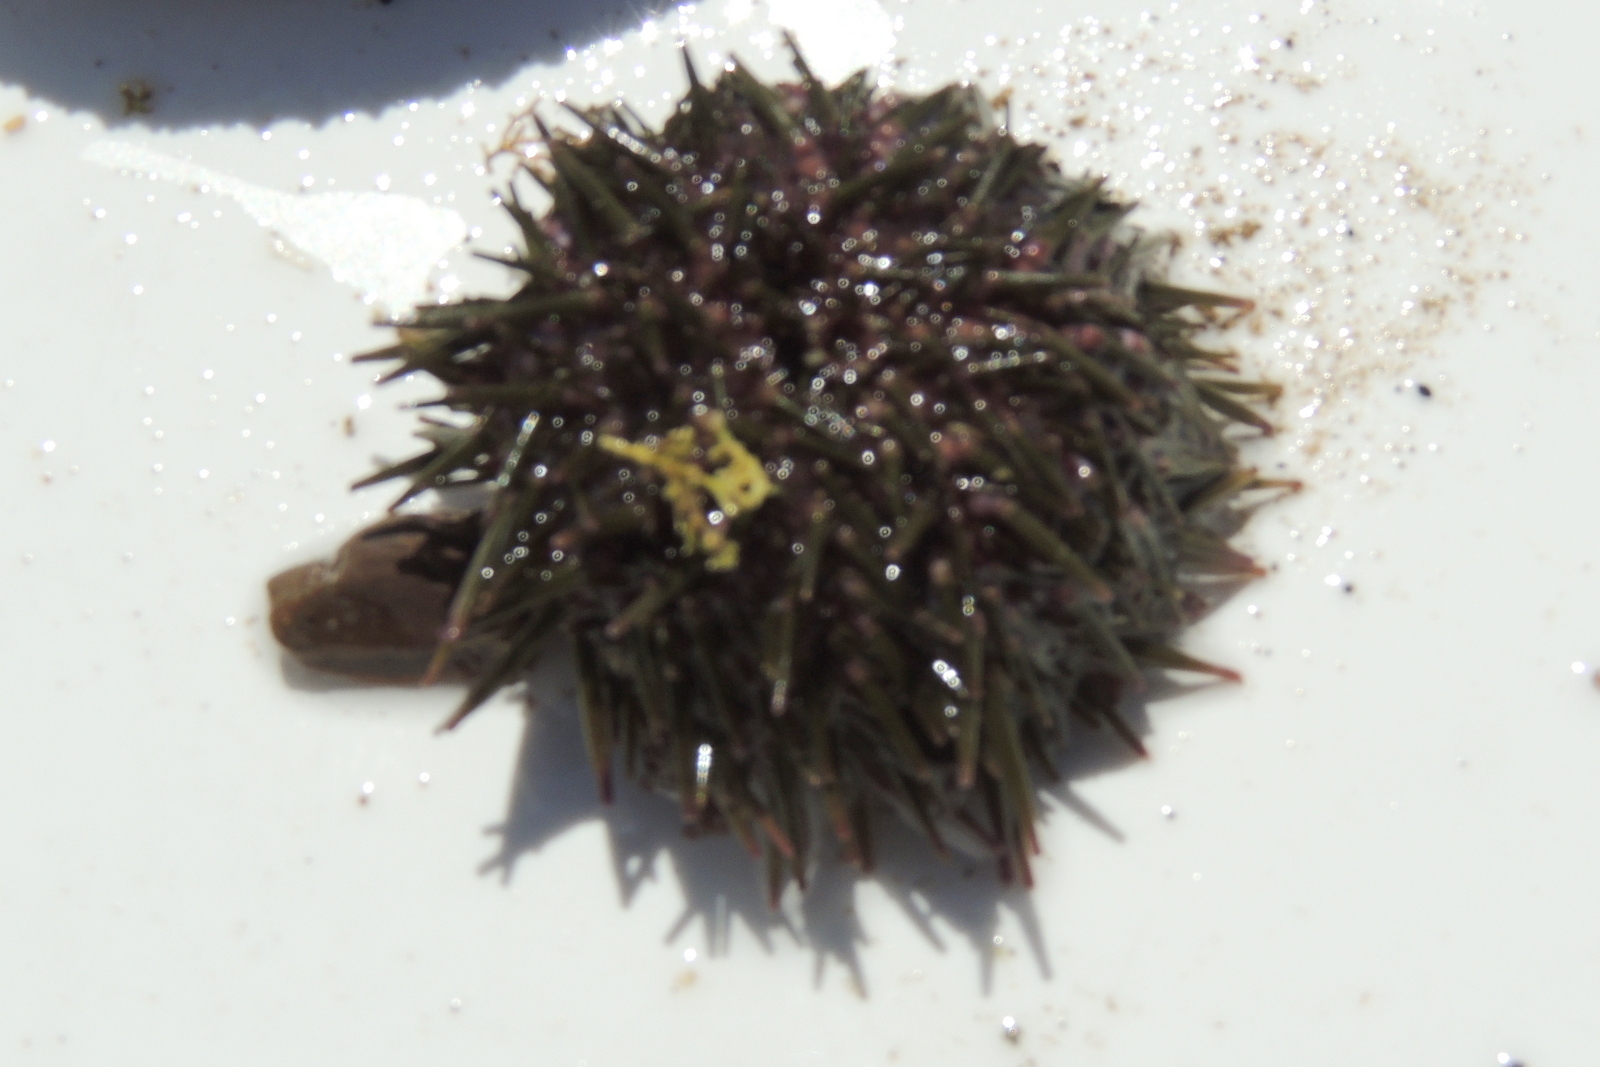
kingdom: Animalia
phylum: Echinodermata
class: Echinoidea
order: Camarodonta
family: Strongylocentrotidae
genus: Strongylocentrotus
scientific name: Strongylocentrotus purpuratus
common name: Purple sea urchin
